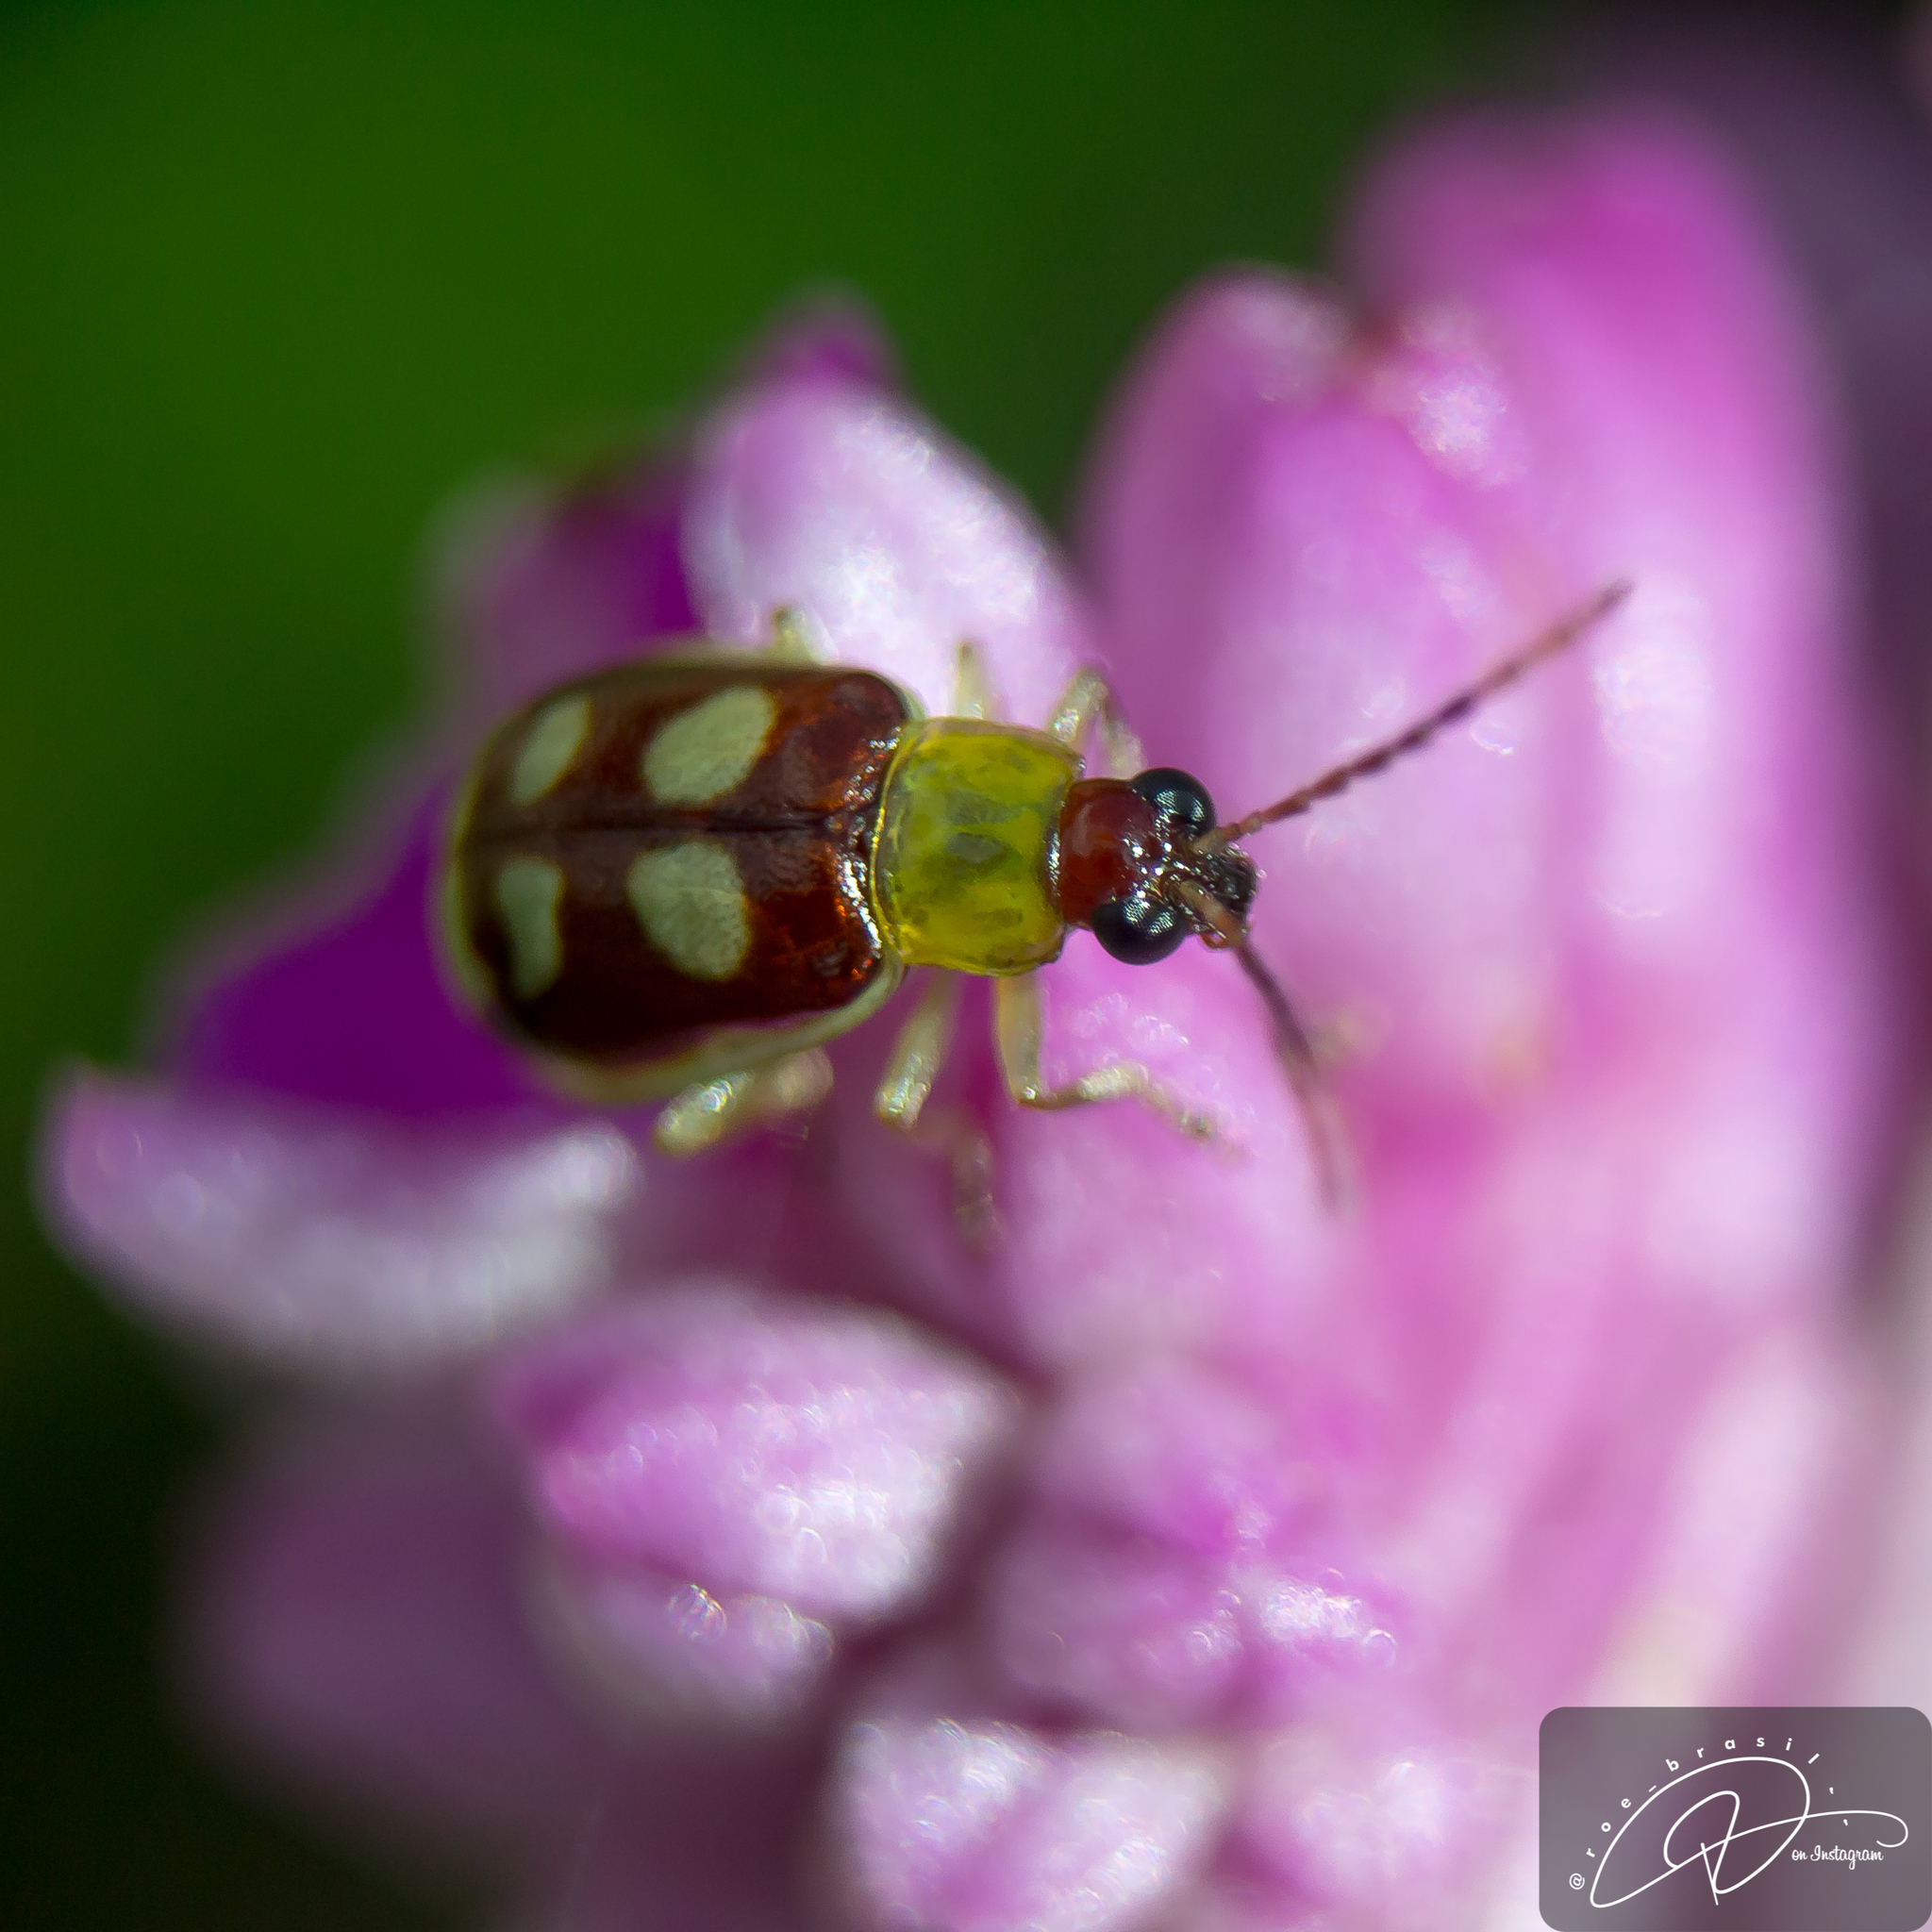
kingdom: Animalia
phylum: Arthropoda
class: Insecta
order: Coleoptera
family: Chrysomelidae
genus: Basiprionota
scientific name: Basiprionota sinuata
